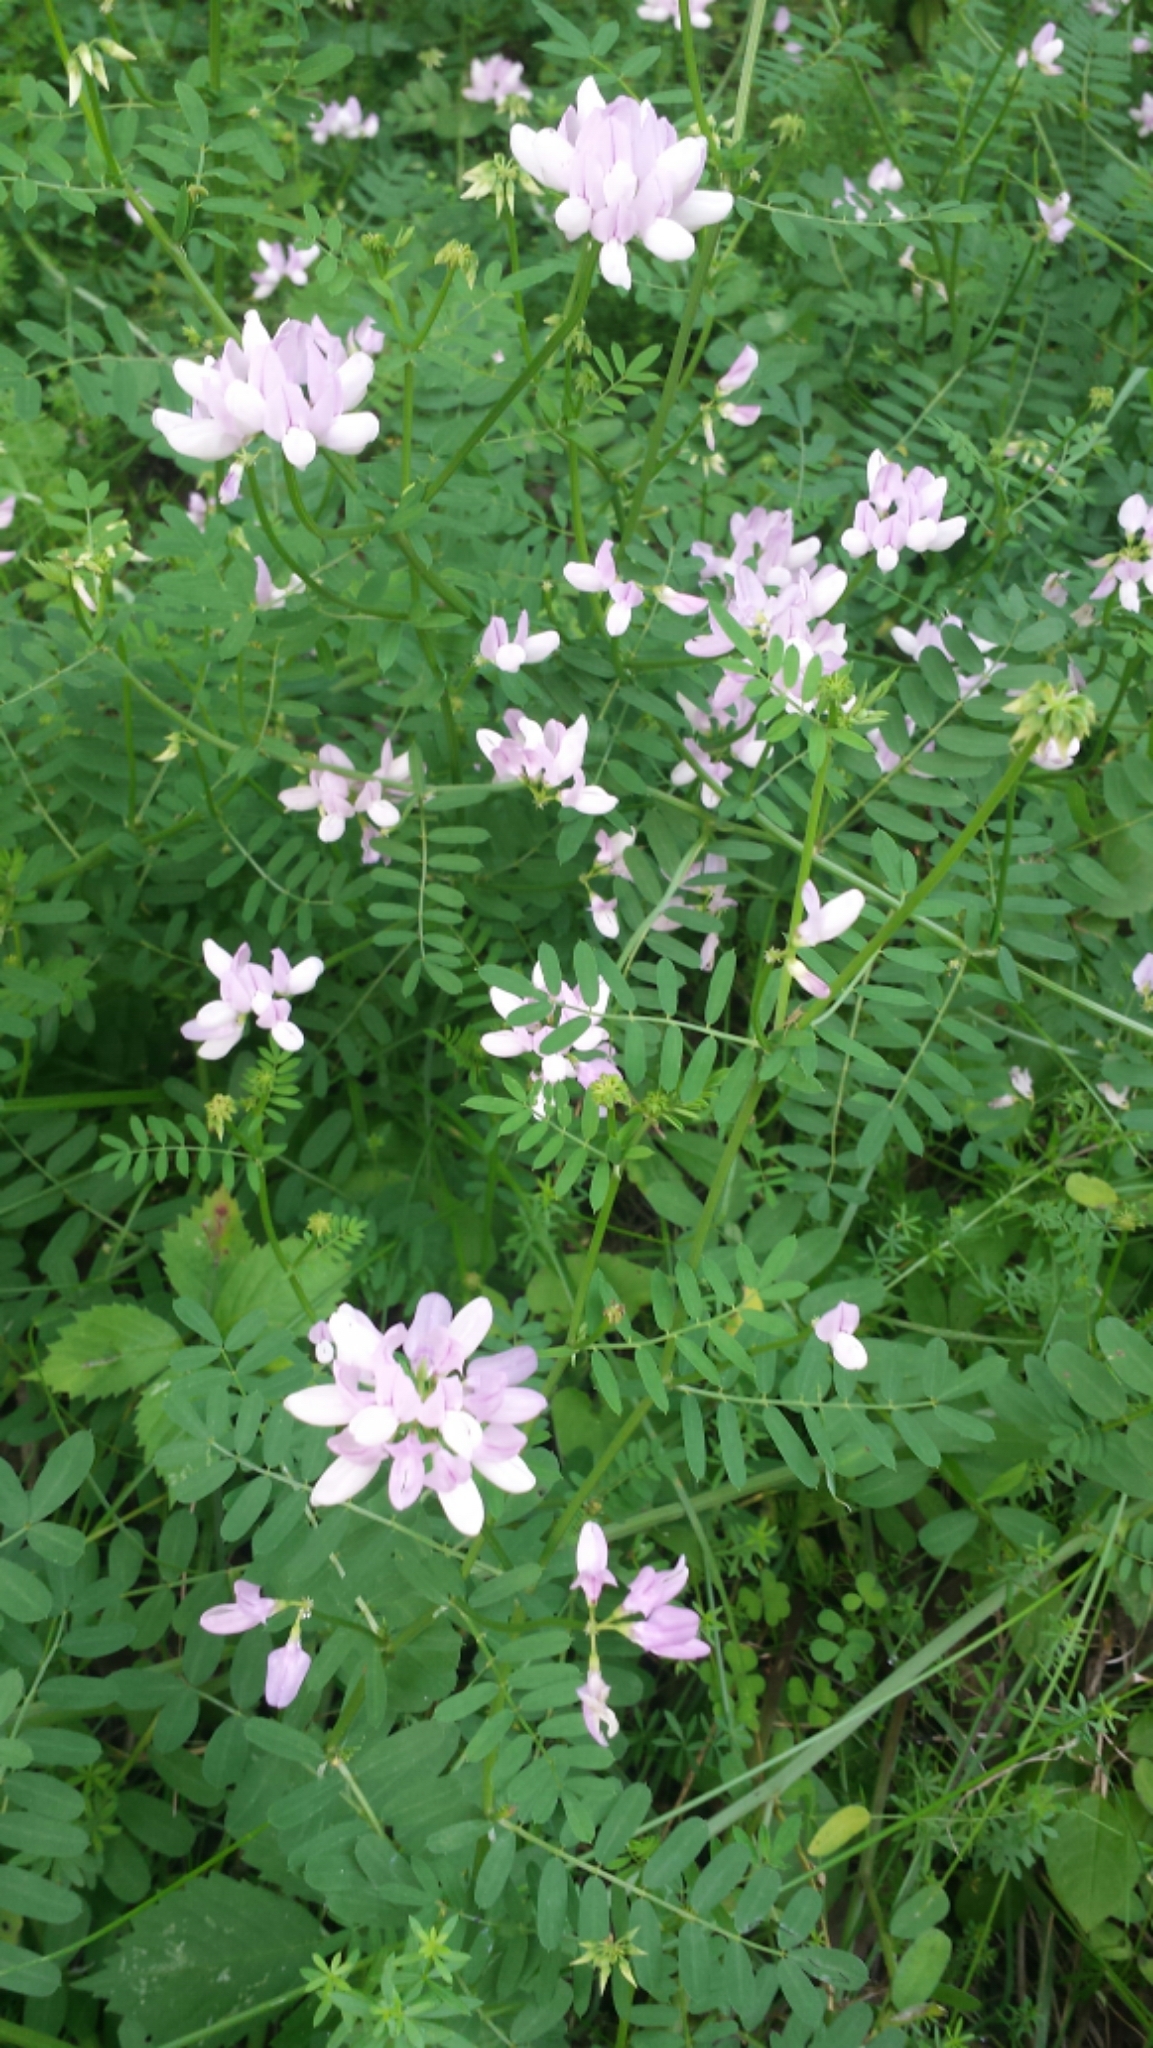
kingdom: Plantae
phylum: Tracheophyta
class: Magnoliopsida
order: Fabales
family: Fabaceae
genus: Coronilla
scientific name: Coronilla varia
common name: Crownvetch
